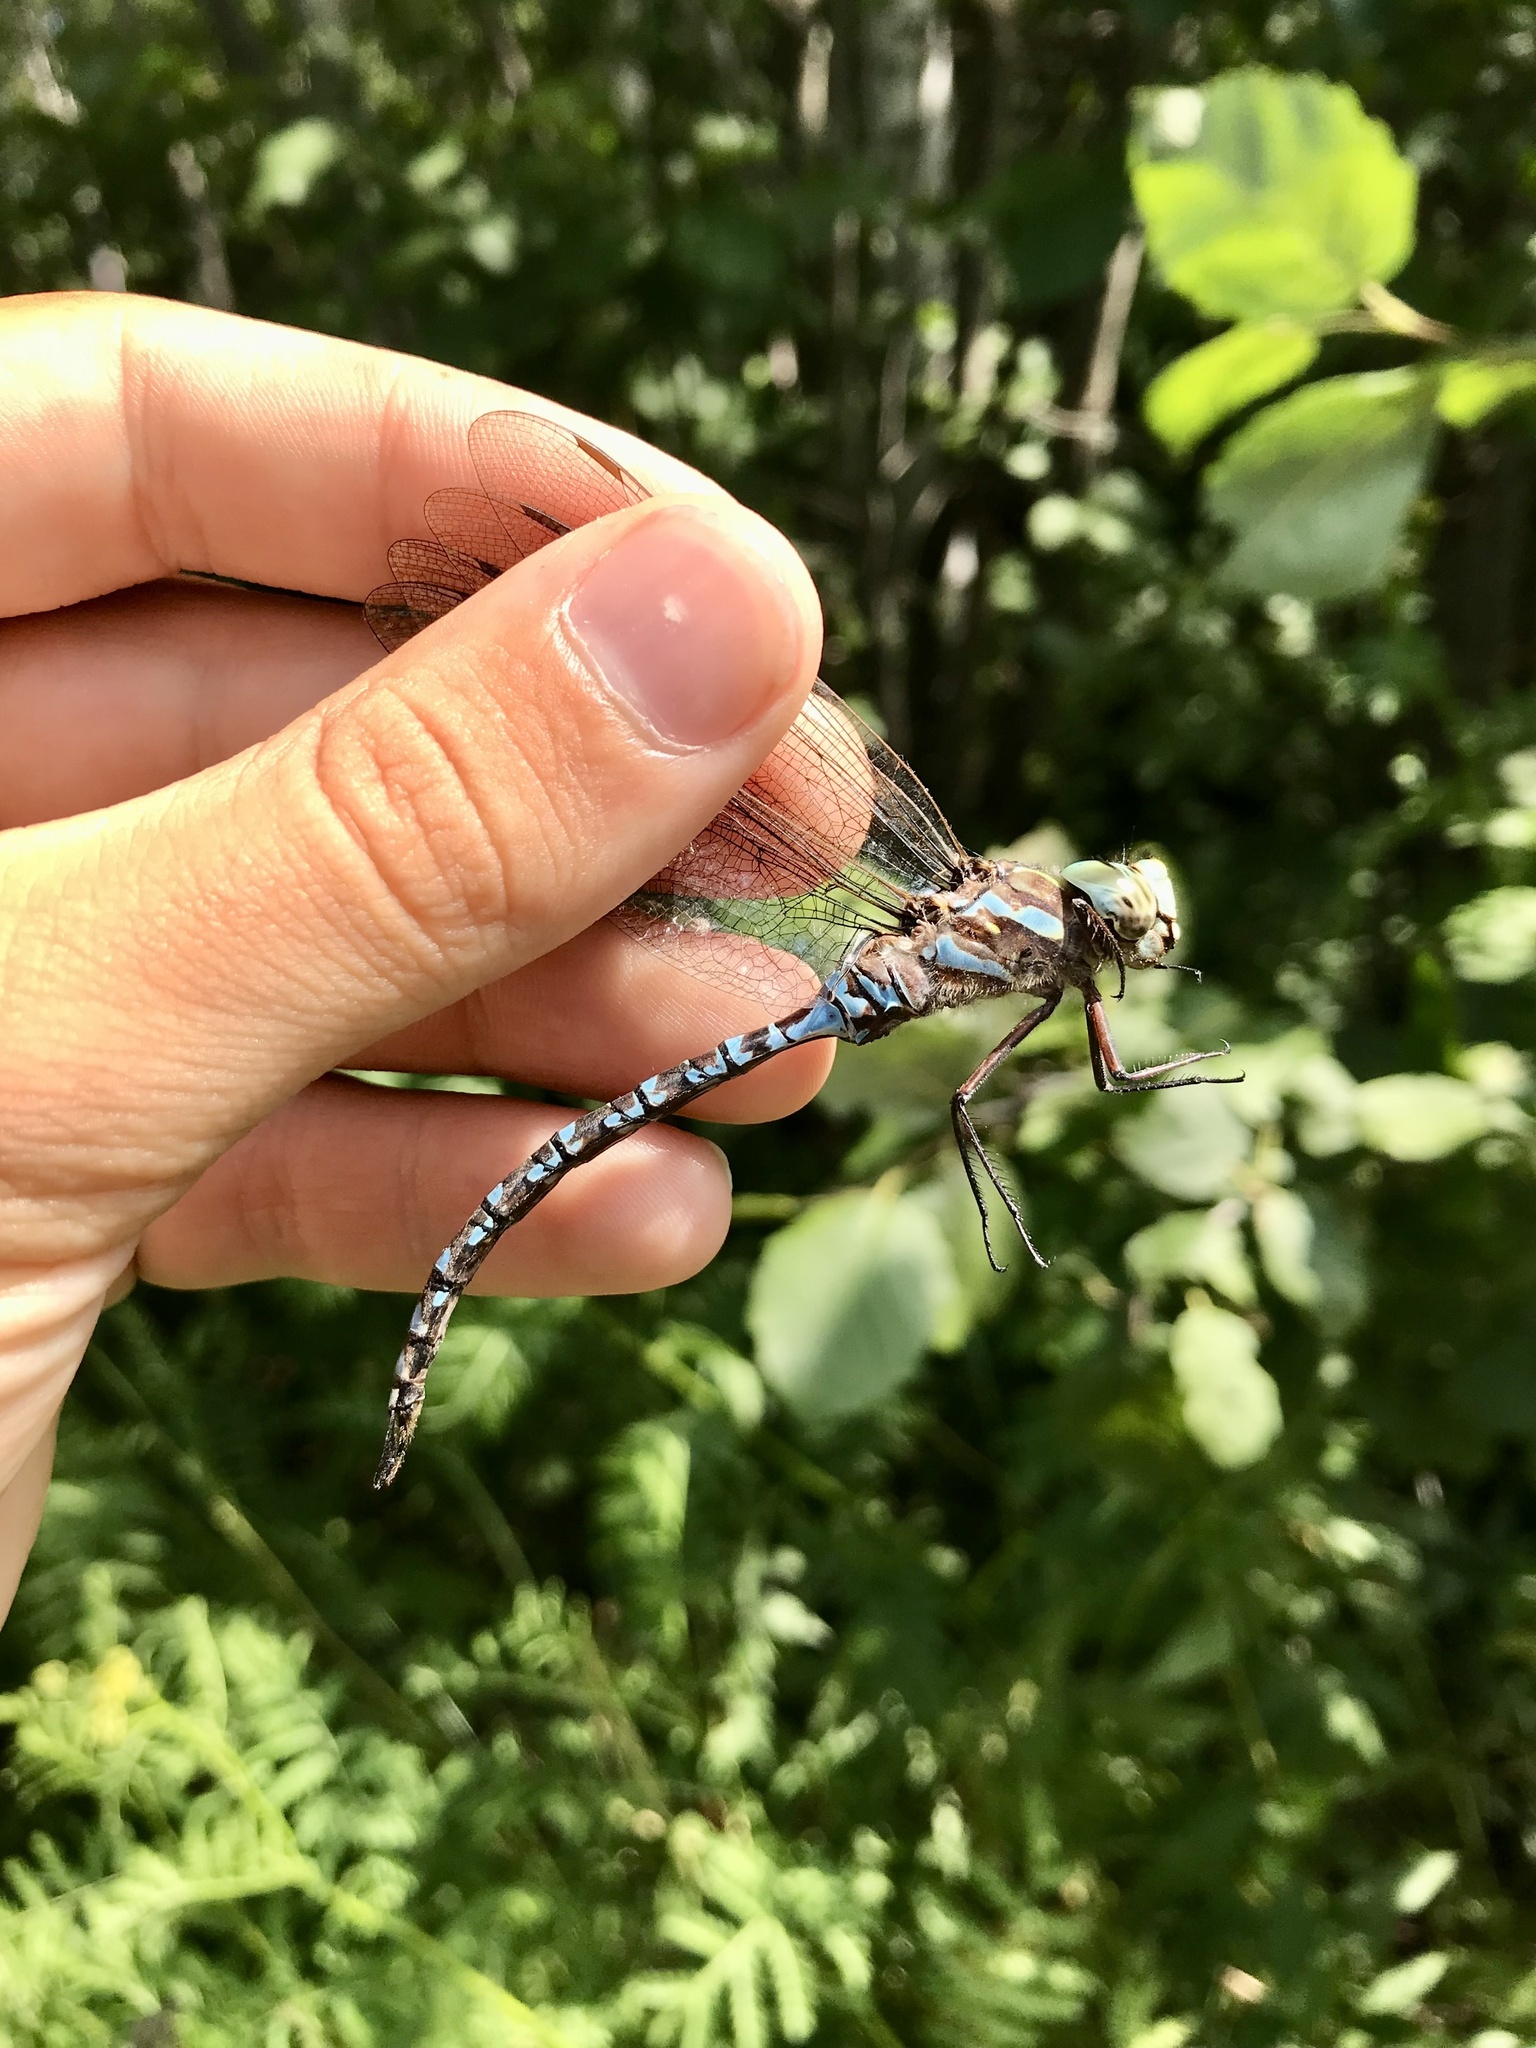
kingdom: Animalia
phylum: Arthropoda
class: Insecta
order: Odonata
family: Aeshnidae
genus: Aeshna
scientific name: Aeshna canadensis
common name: Canada darner
